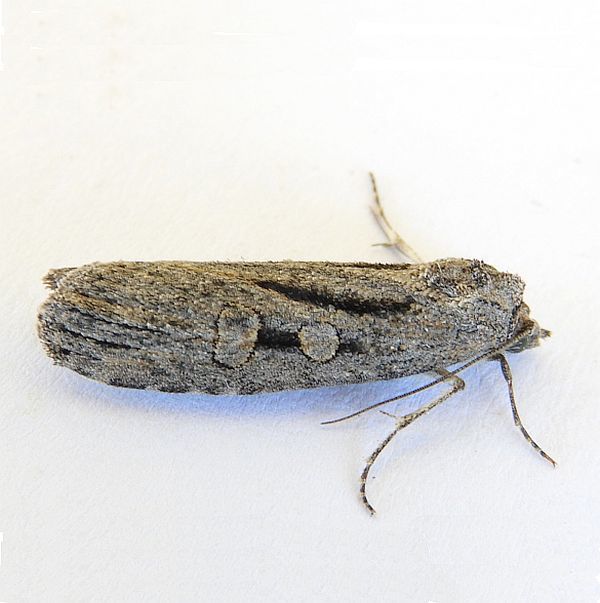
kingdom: Animalia
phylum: Arthropoda
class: Insecta
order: Lepidoptera
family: Noctuidae
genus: Fota
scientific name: Fota armata
